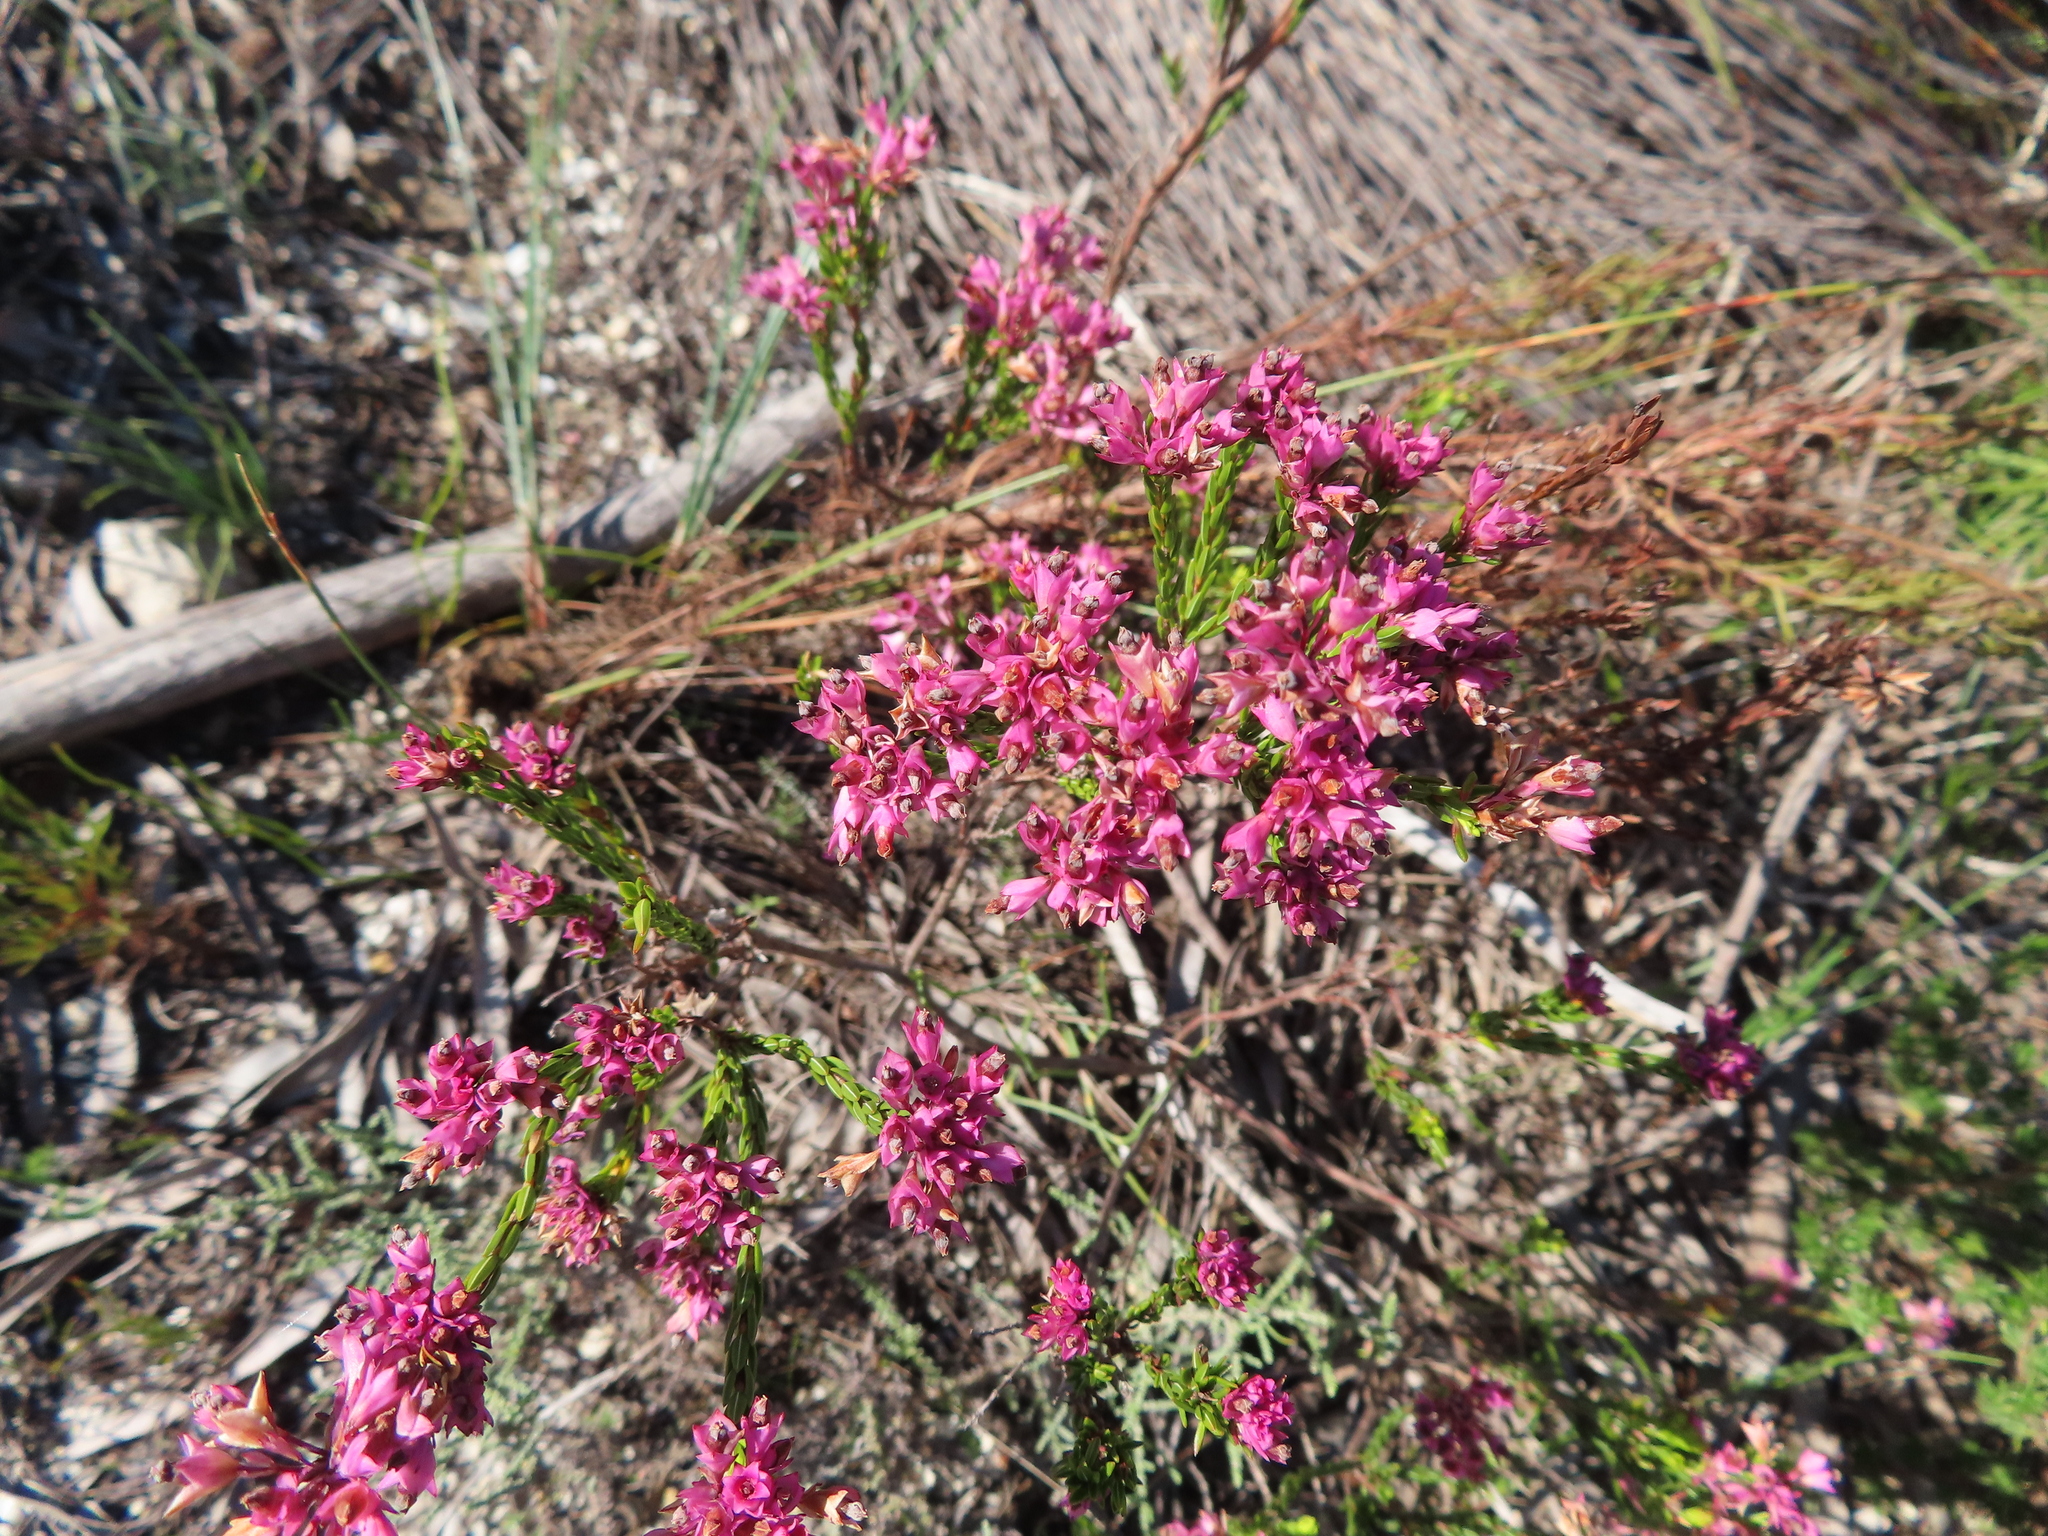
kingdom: Plantae
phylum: Tracheophyta
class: Magnoliopsida
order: Ericales
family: Ericaceae
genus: Erica
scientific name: Erica corifolia
